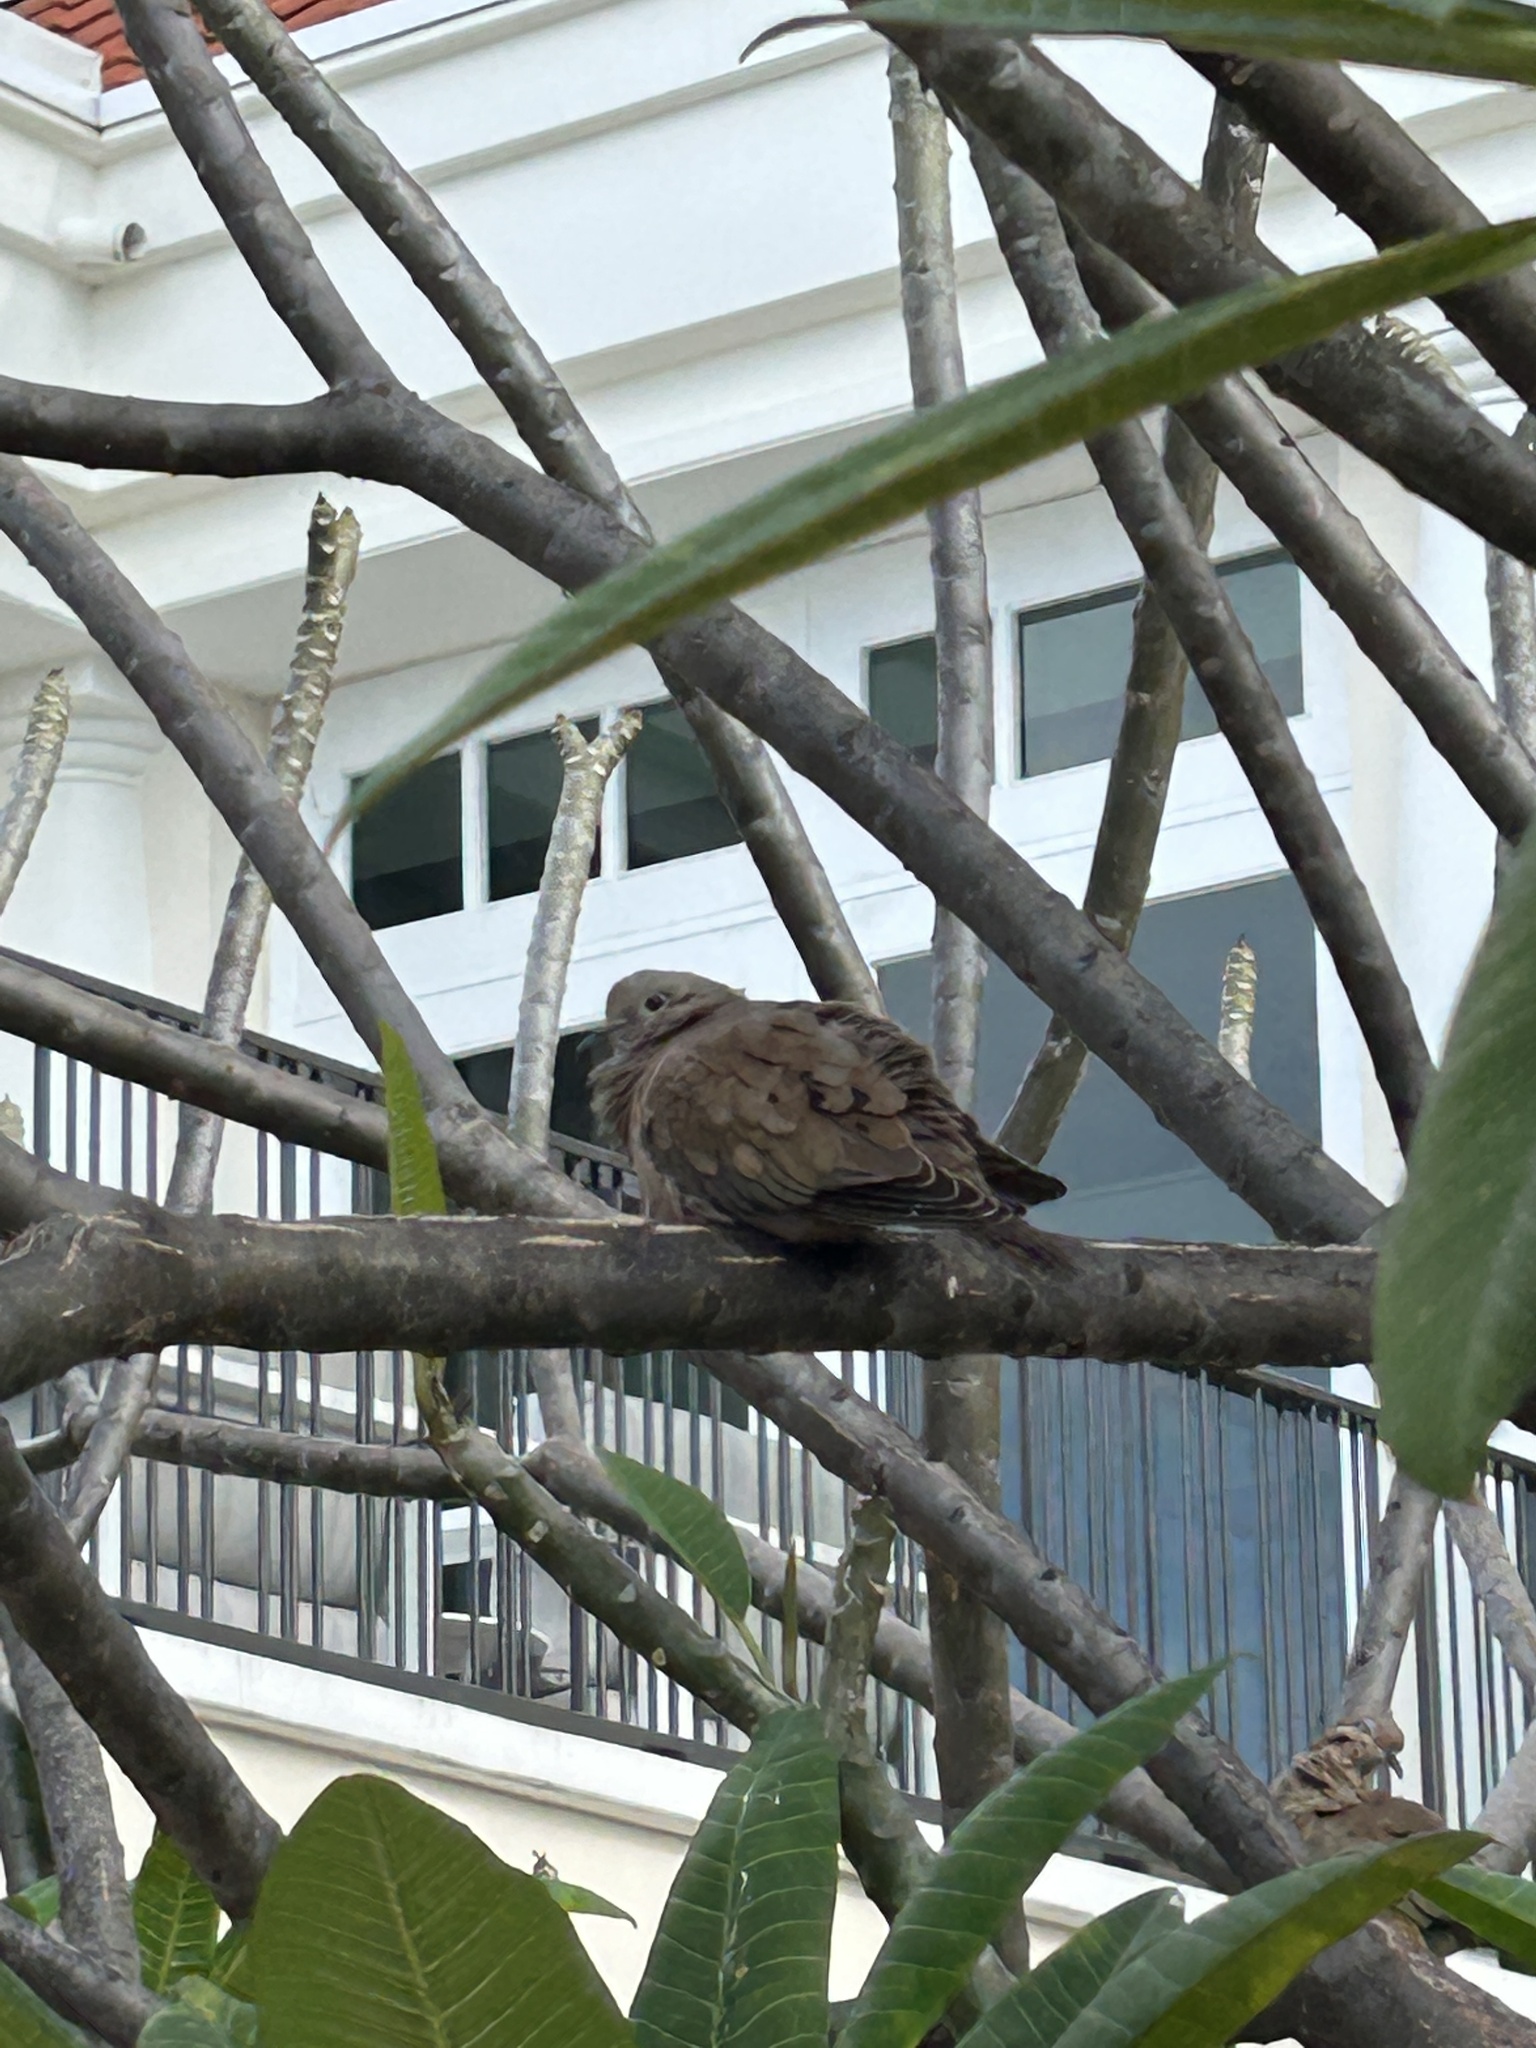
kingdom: Animalia
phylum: Chordata
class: Aves
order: Columbiformes
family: Columbidae
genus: Zenaida
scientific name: Zenaida auriculata
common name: Eared dove
